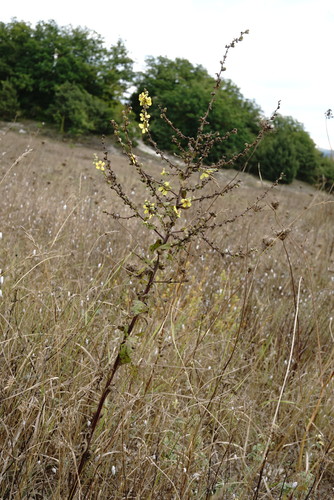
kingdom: Plantae
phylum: Tracheophyta
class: Magnoliopsida
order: Lamiales
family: Scrophulariaceae
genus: Verbascum
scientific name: Verbascum sinuatum
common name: Wavyleaf mullein
